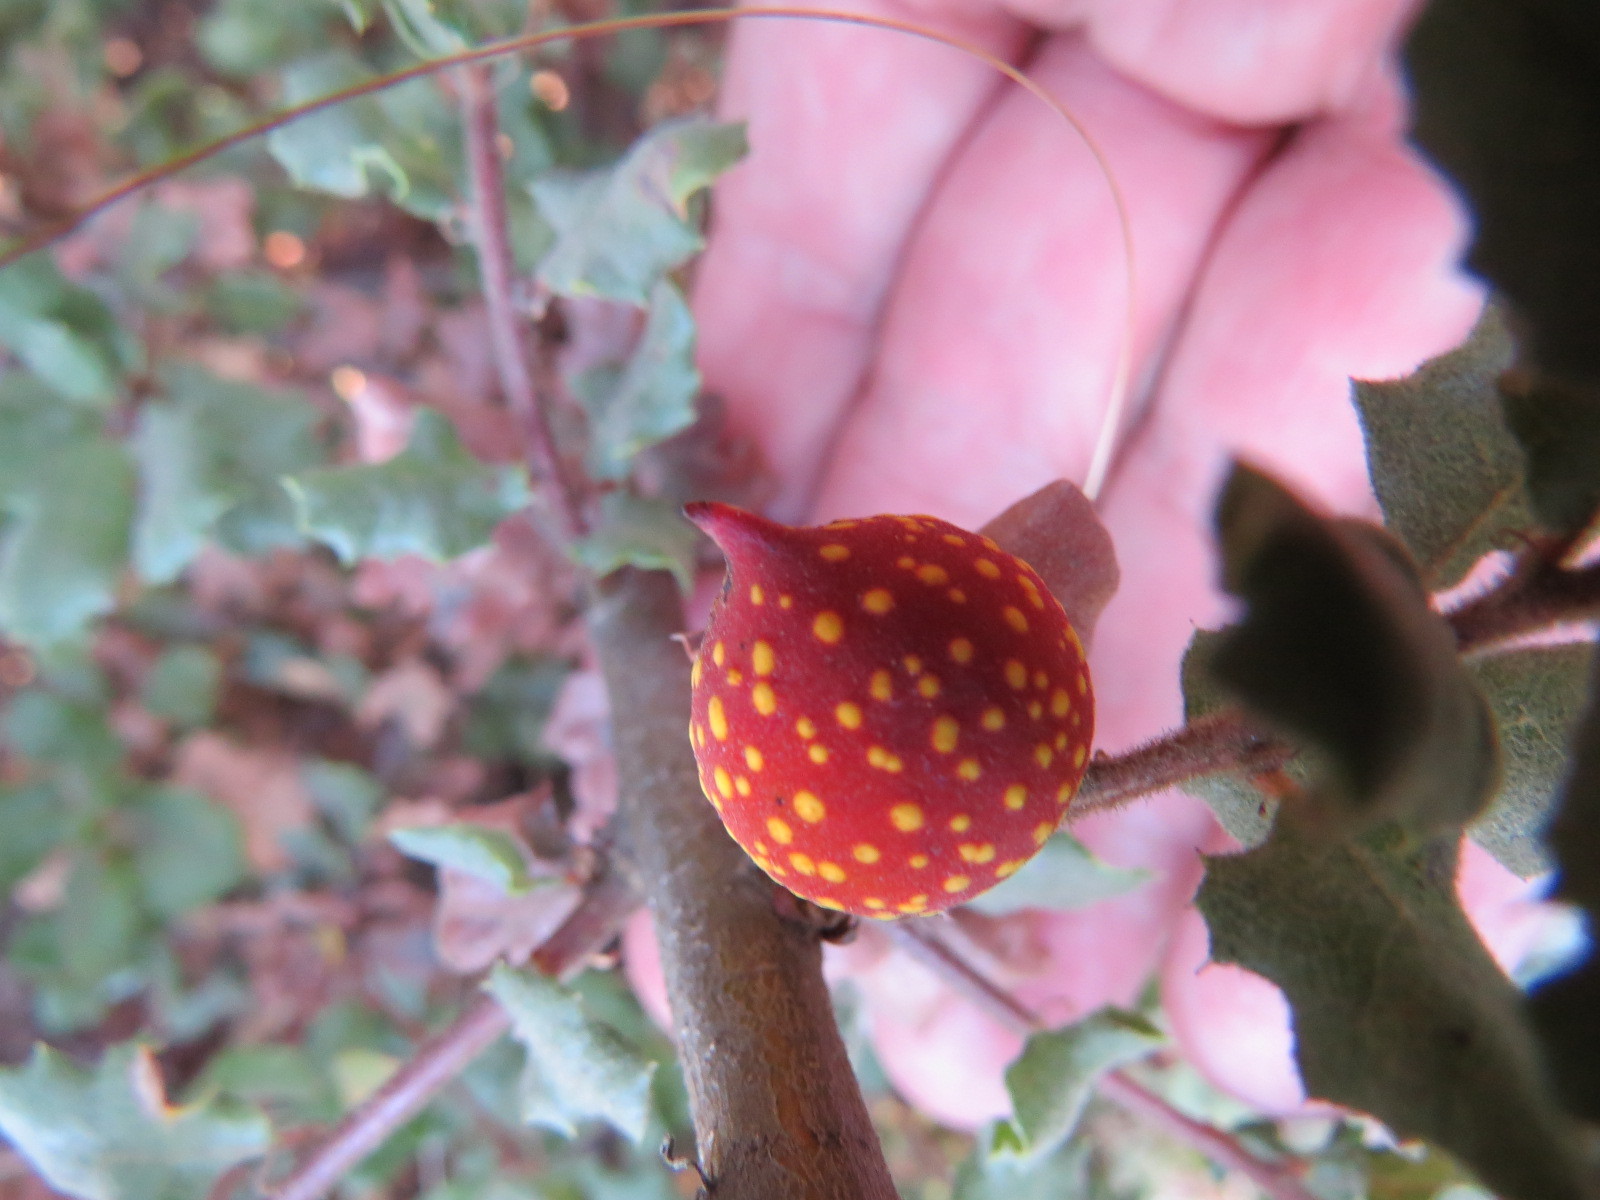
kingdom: Animalia
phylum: Arthropoda
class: Insecta
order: Hymenoptera
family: Cynipidae
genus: Burnettweldia
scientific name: Burnettweldia
